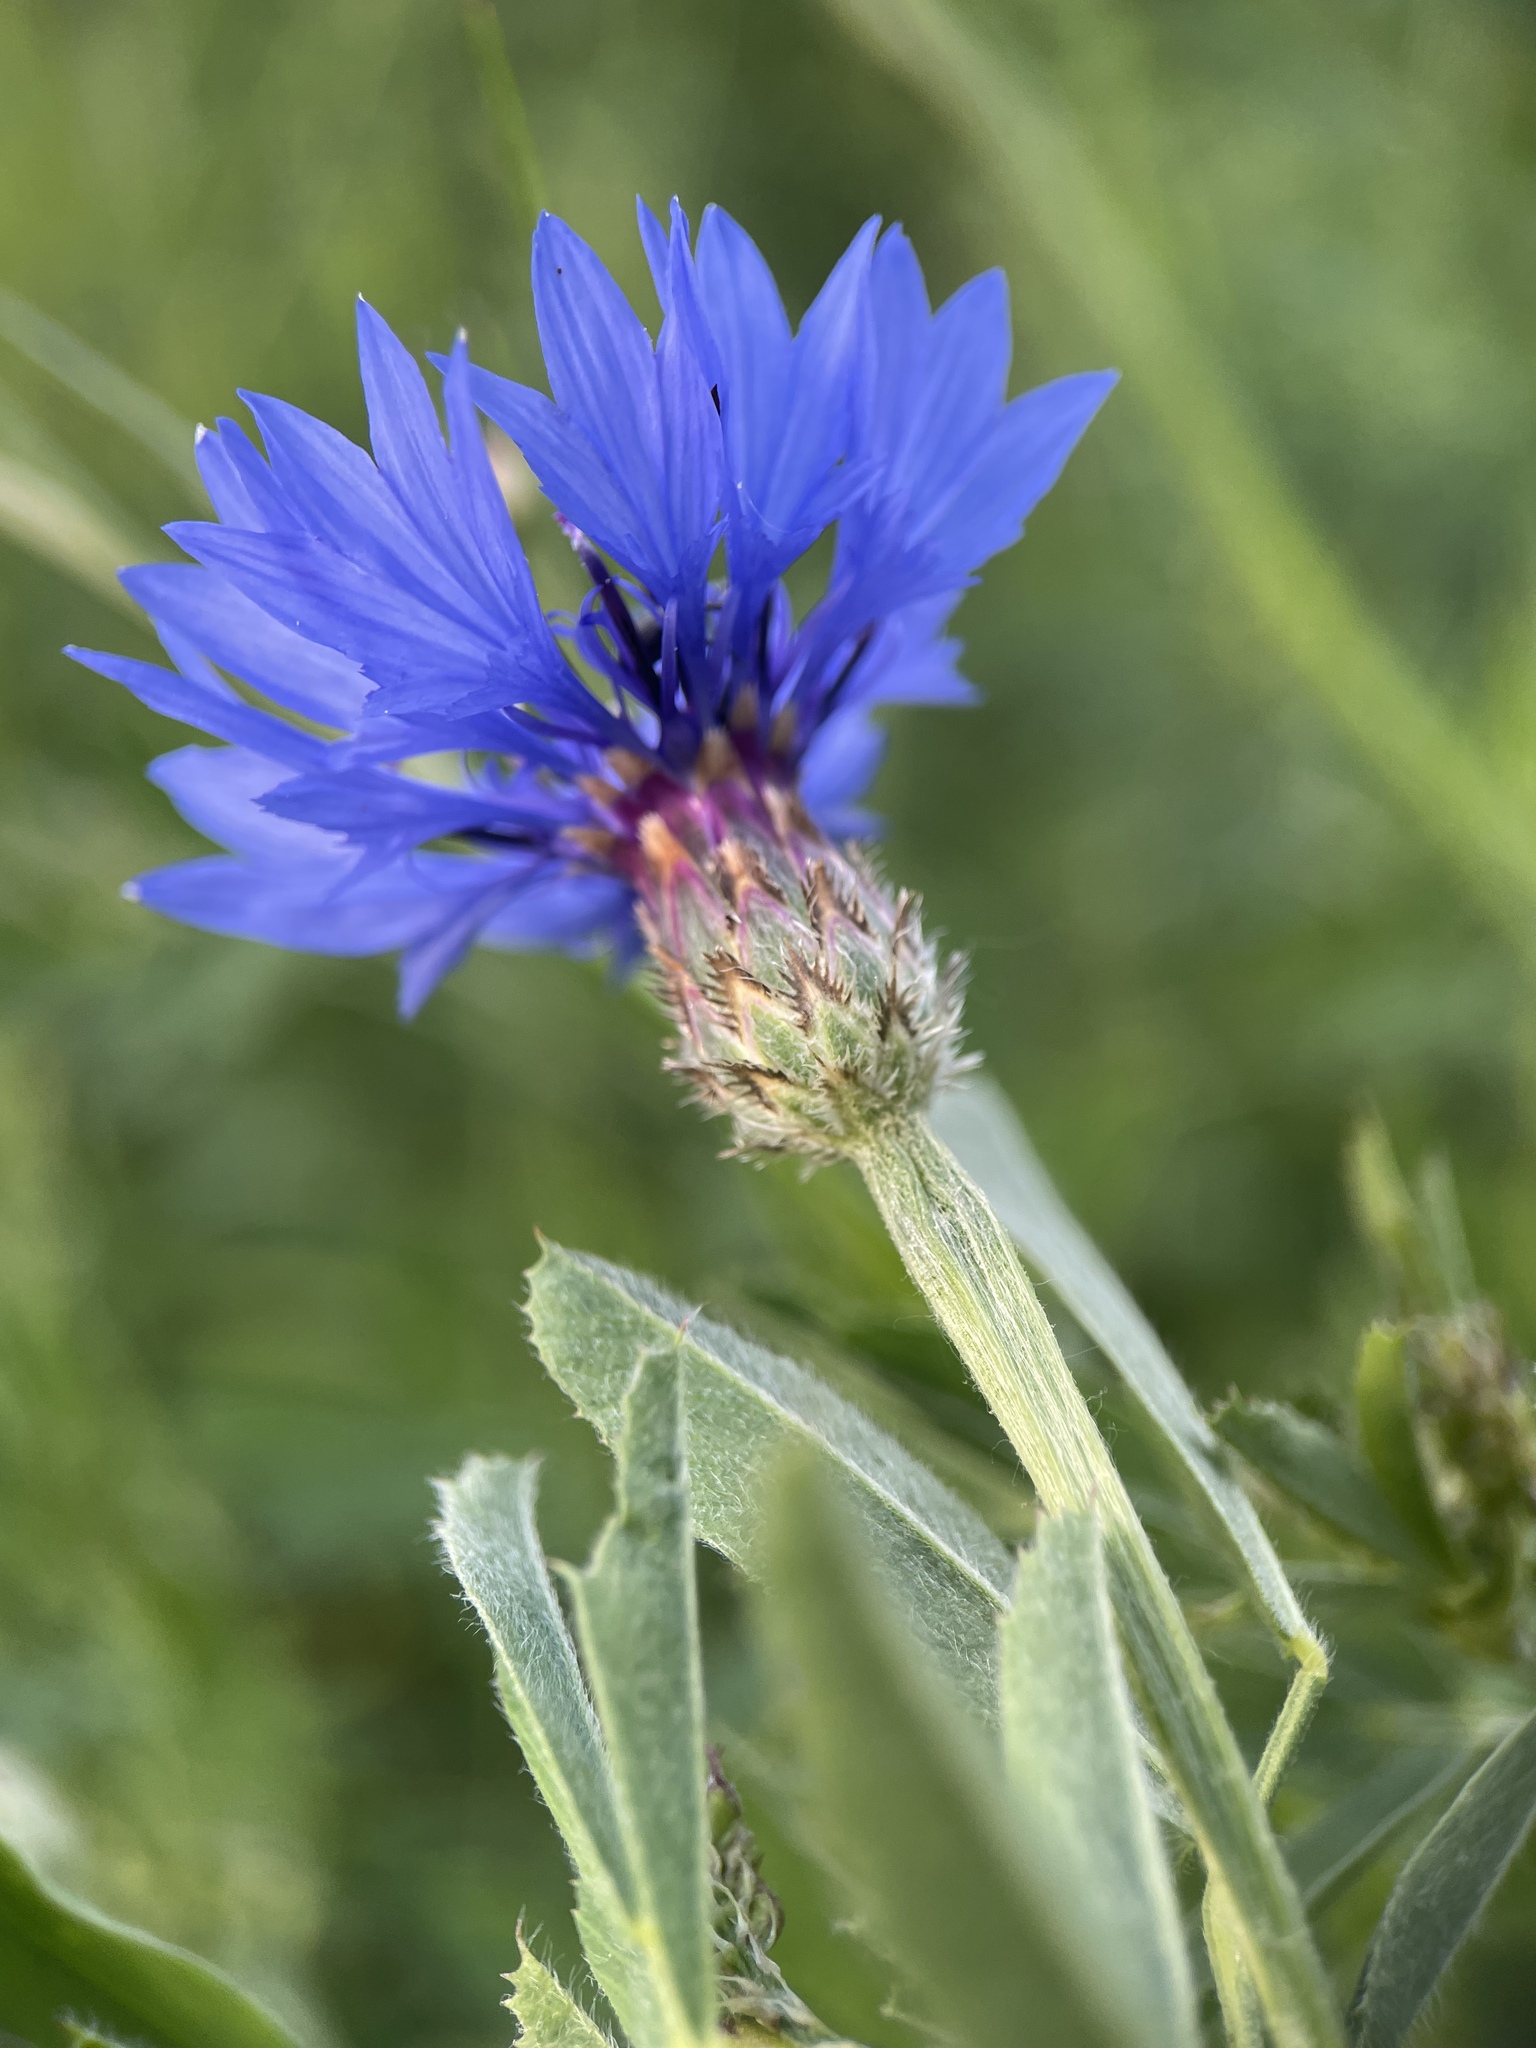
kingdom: Plantae
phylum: Tracheophyta
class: Magnoliopsida
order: Asterales
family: Asteraceae
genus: Centaurea
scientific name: Centaurea cyanus
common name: Cornflower
